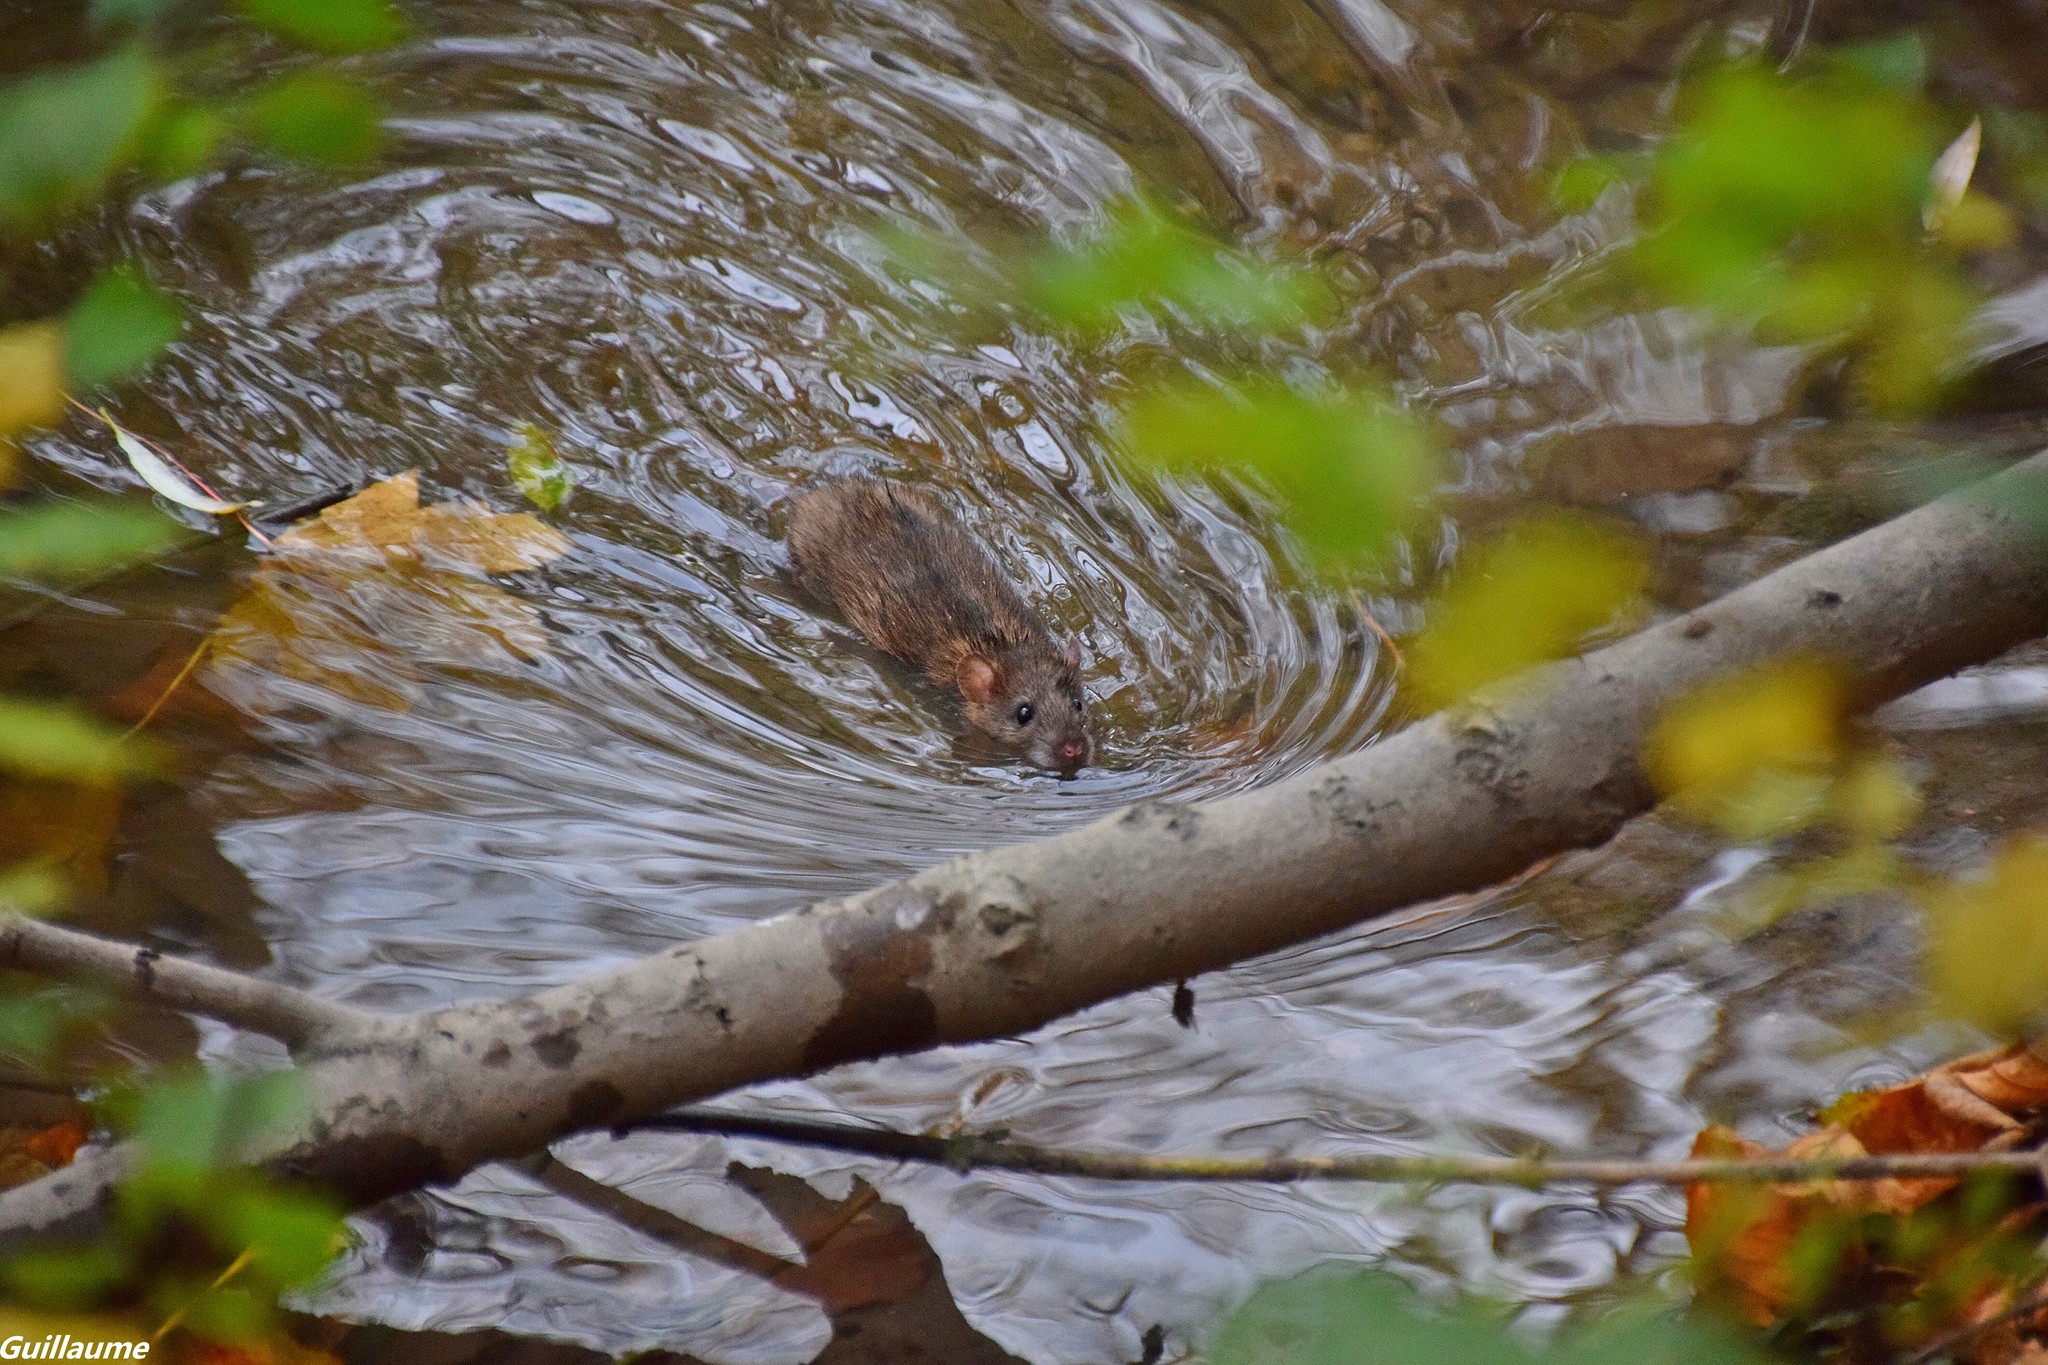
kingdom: Animalia
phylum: Chordata
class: Mammalia
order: Rodentia
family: Muridae
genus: Rattus
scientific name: Rattus norvegicus
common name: Brown rat
